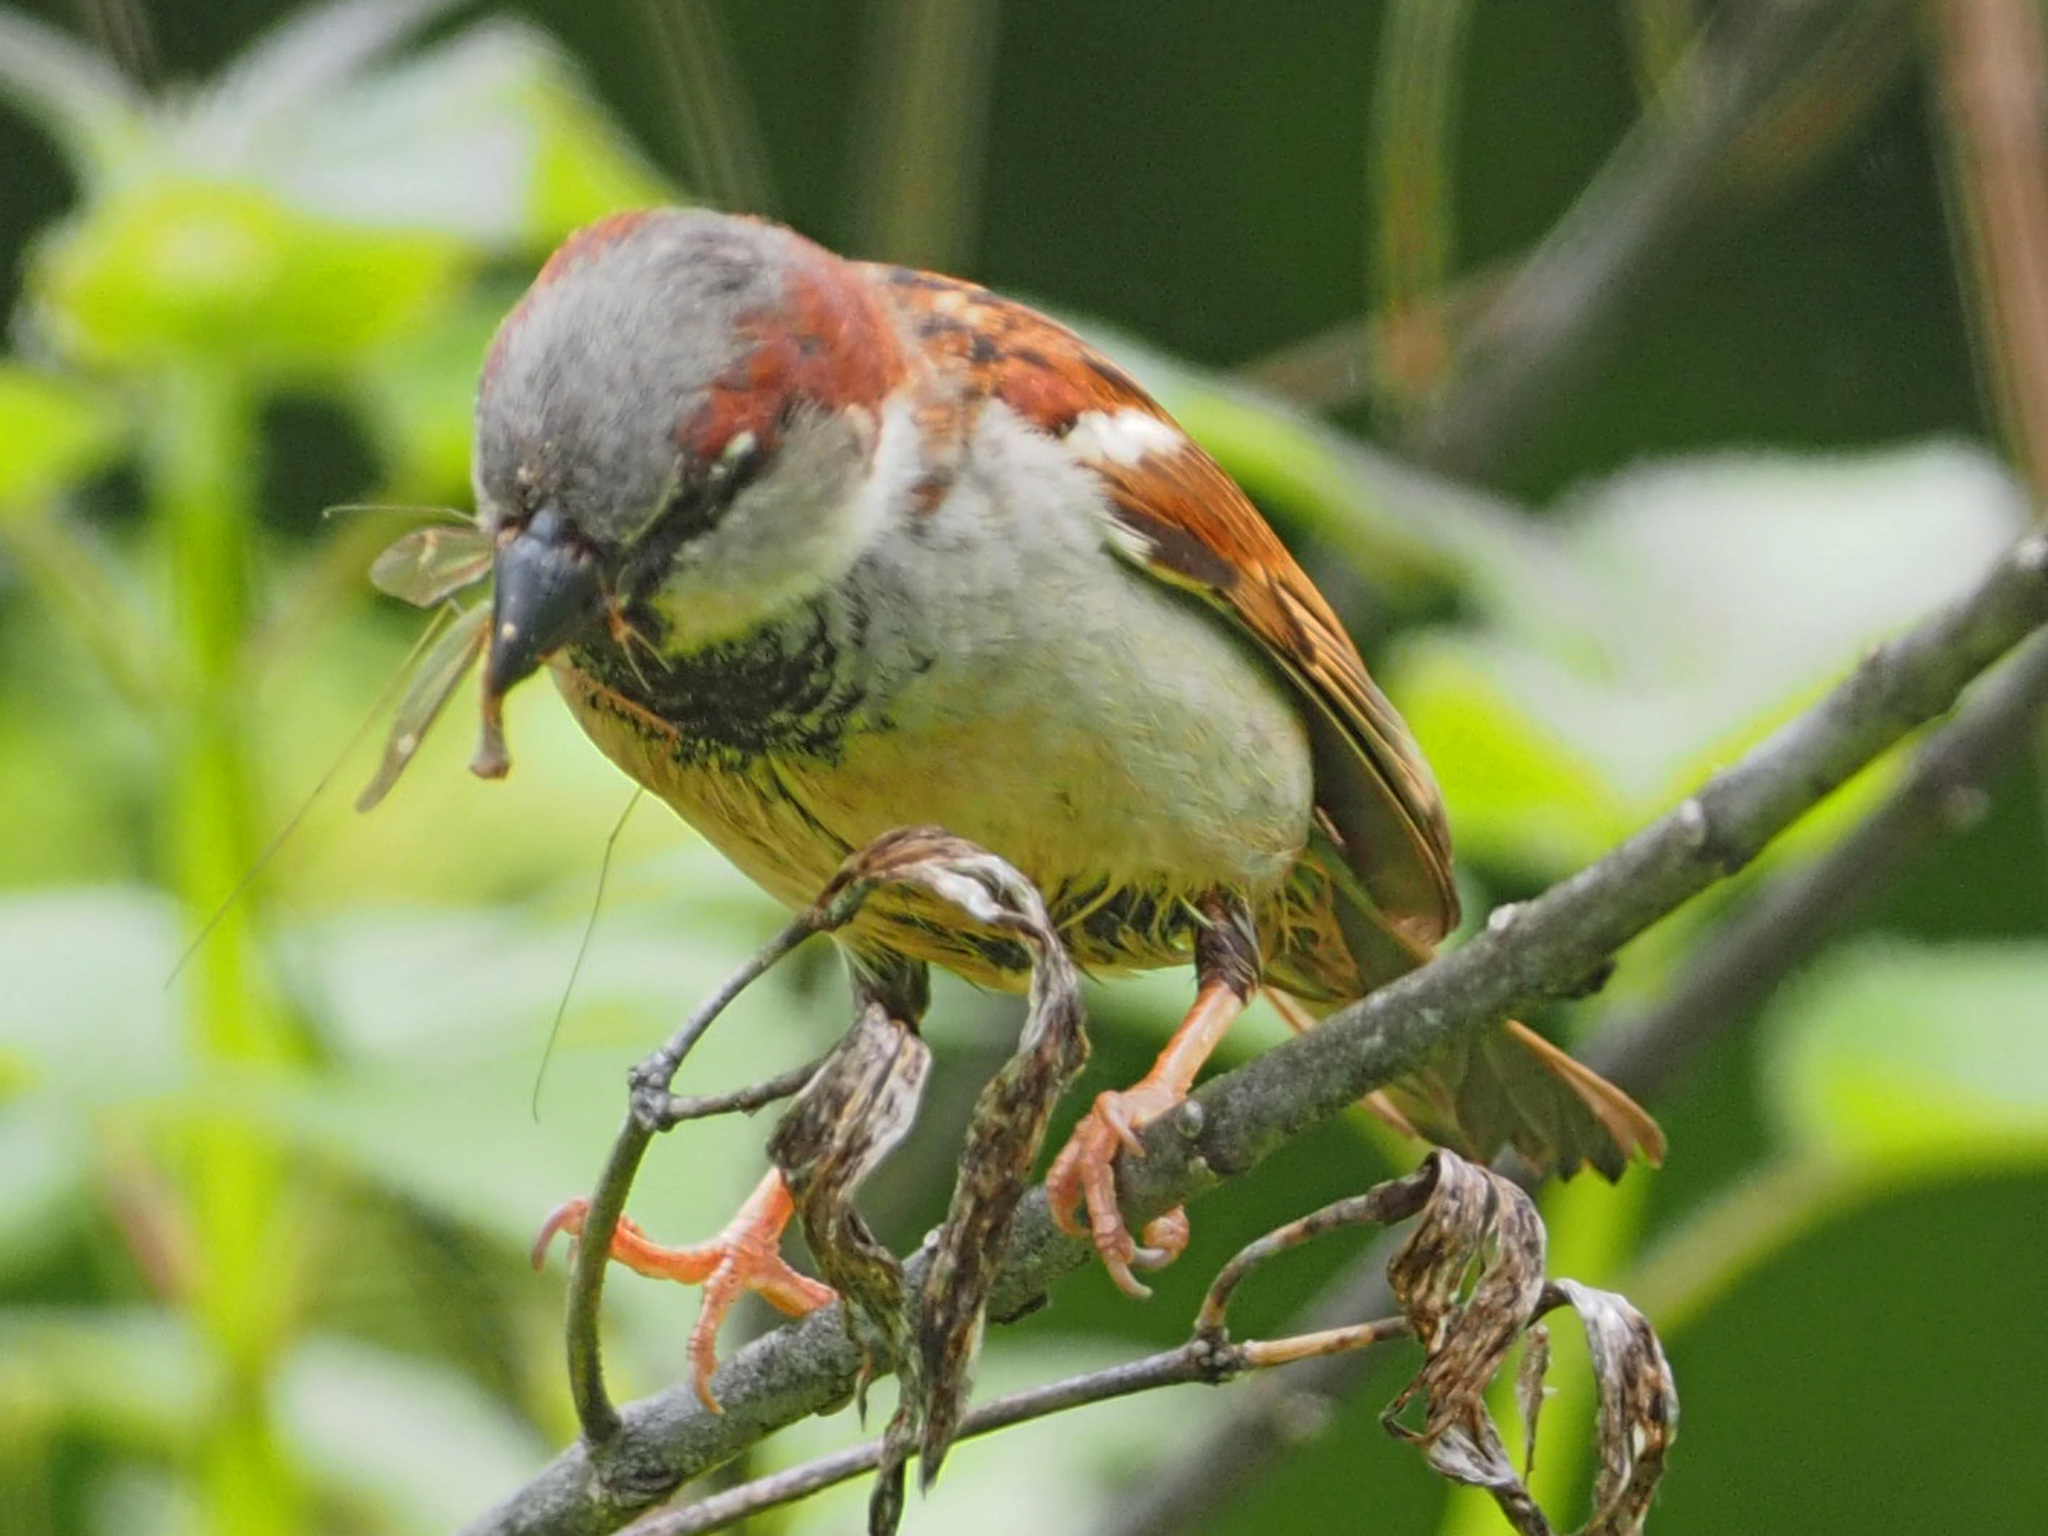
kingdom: Animalia
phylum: Chordata
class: Aves
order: Passeriformes
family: Passeridae
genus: Passer
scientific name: Passer domesticus
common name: House sparrow
